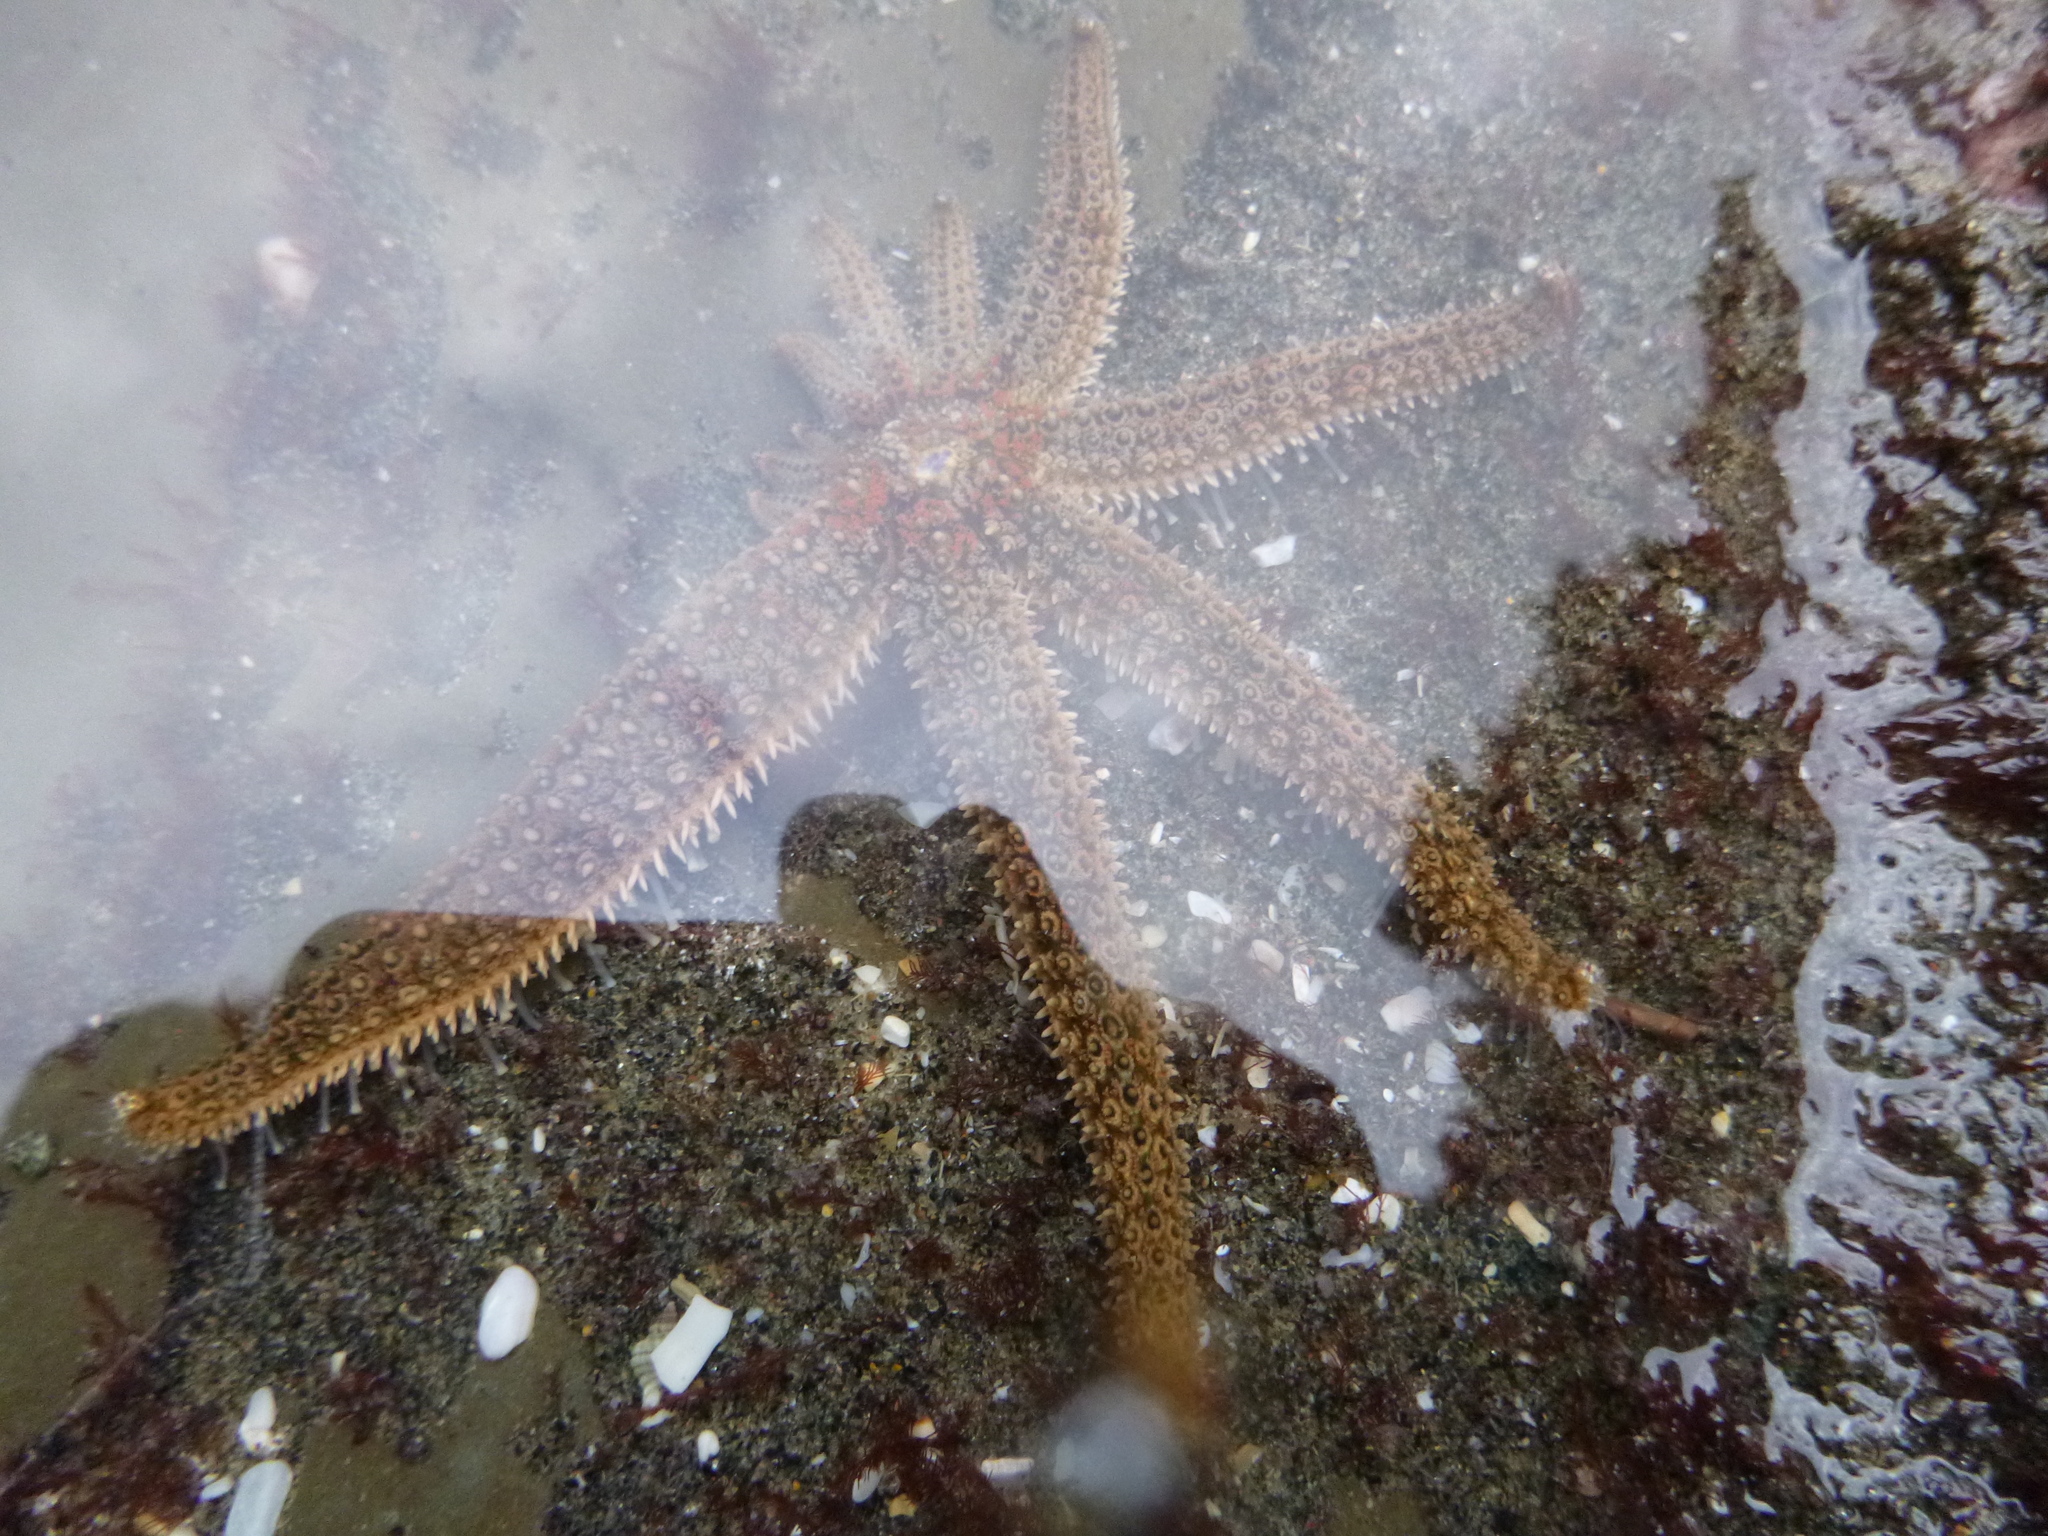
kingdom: Animalia
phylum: Echinodermata
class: Asteroidea
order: Forcipulatida
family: Asteriidae
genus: Coscinasterias
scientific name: Coscinasterias muricata
